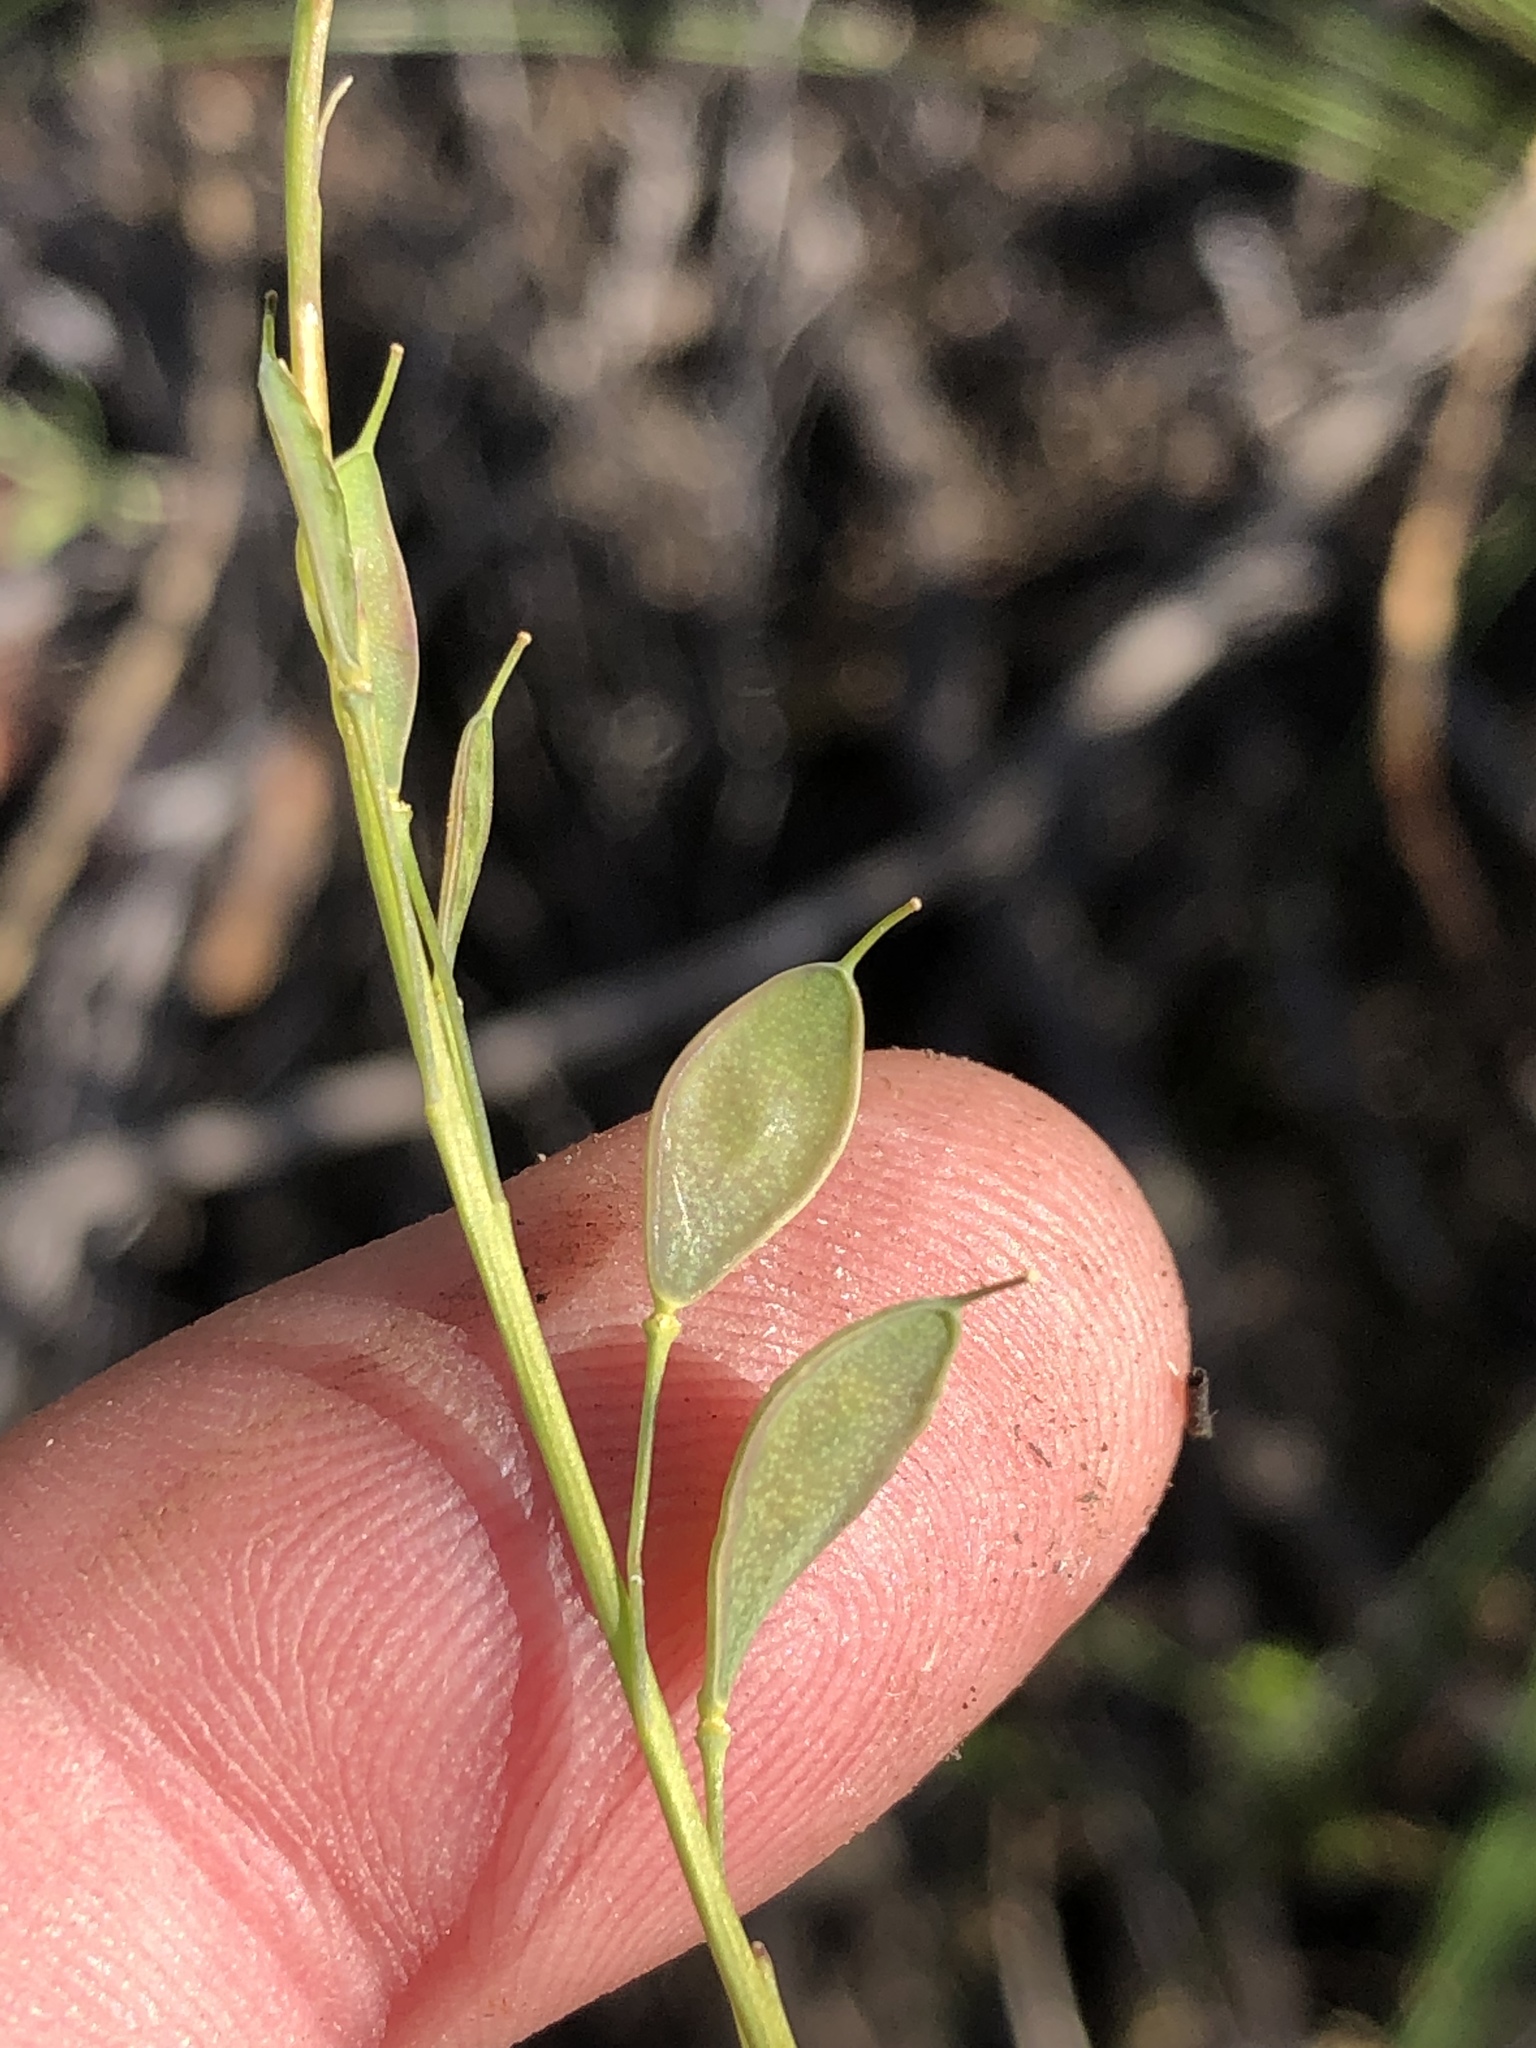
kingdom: Plantae
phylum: Tracheophyta
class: Magnoliopsida
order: Brassicales
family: Brassicaceae
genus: Heliophila
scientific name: Heliophila glauca
